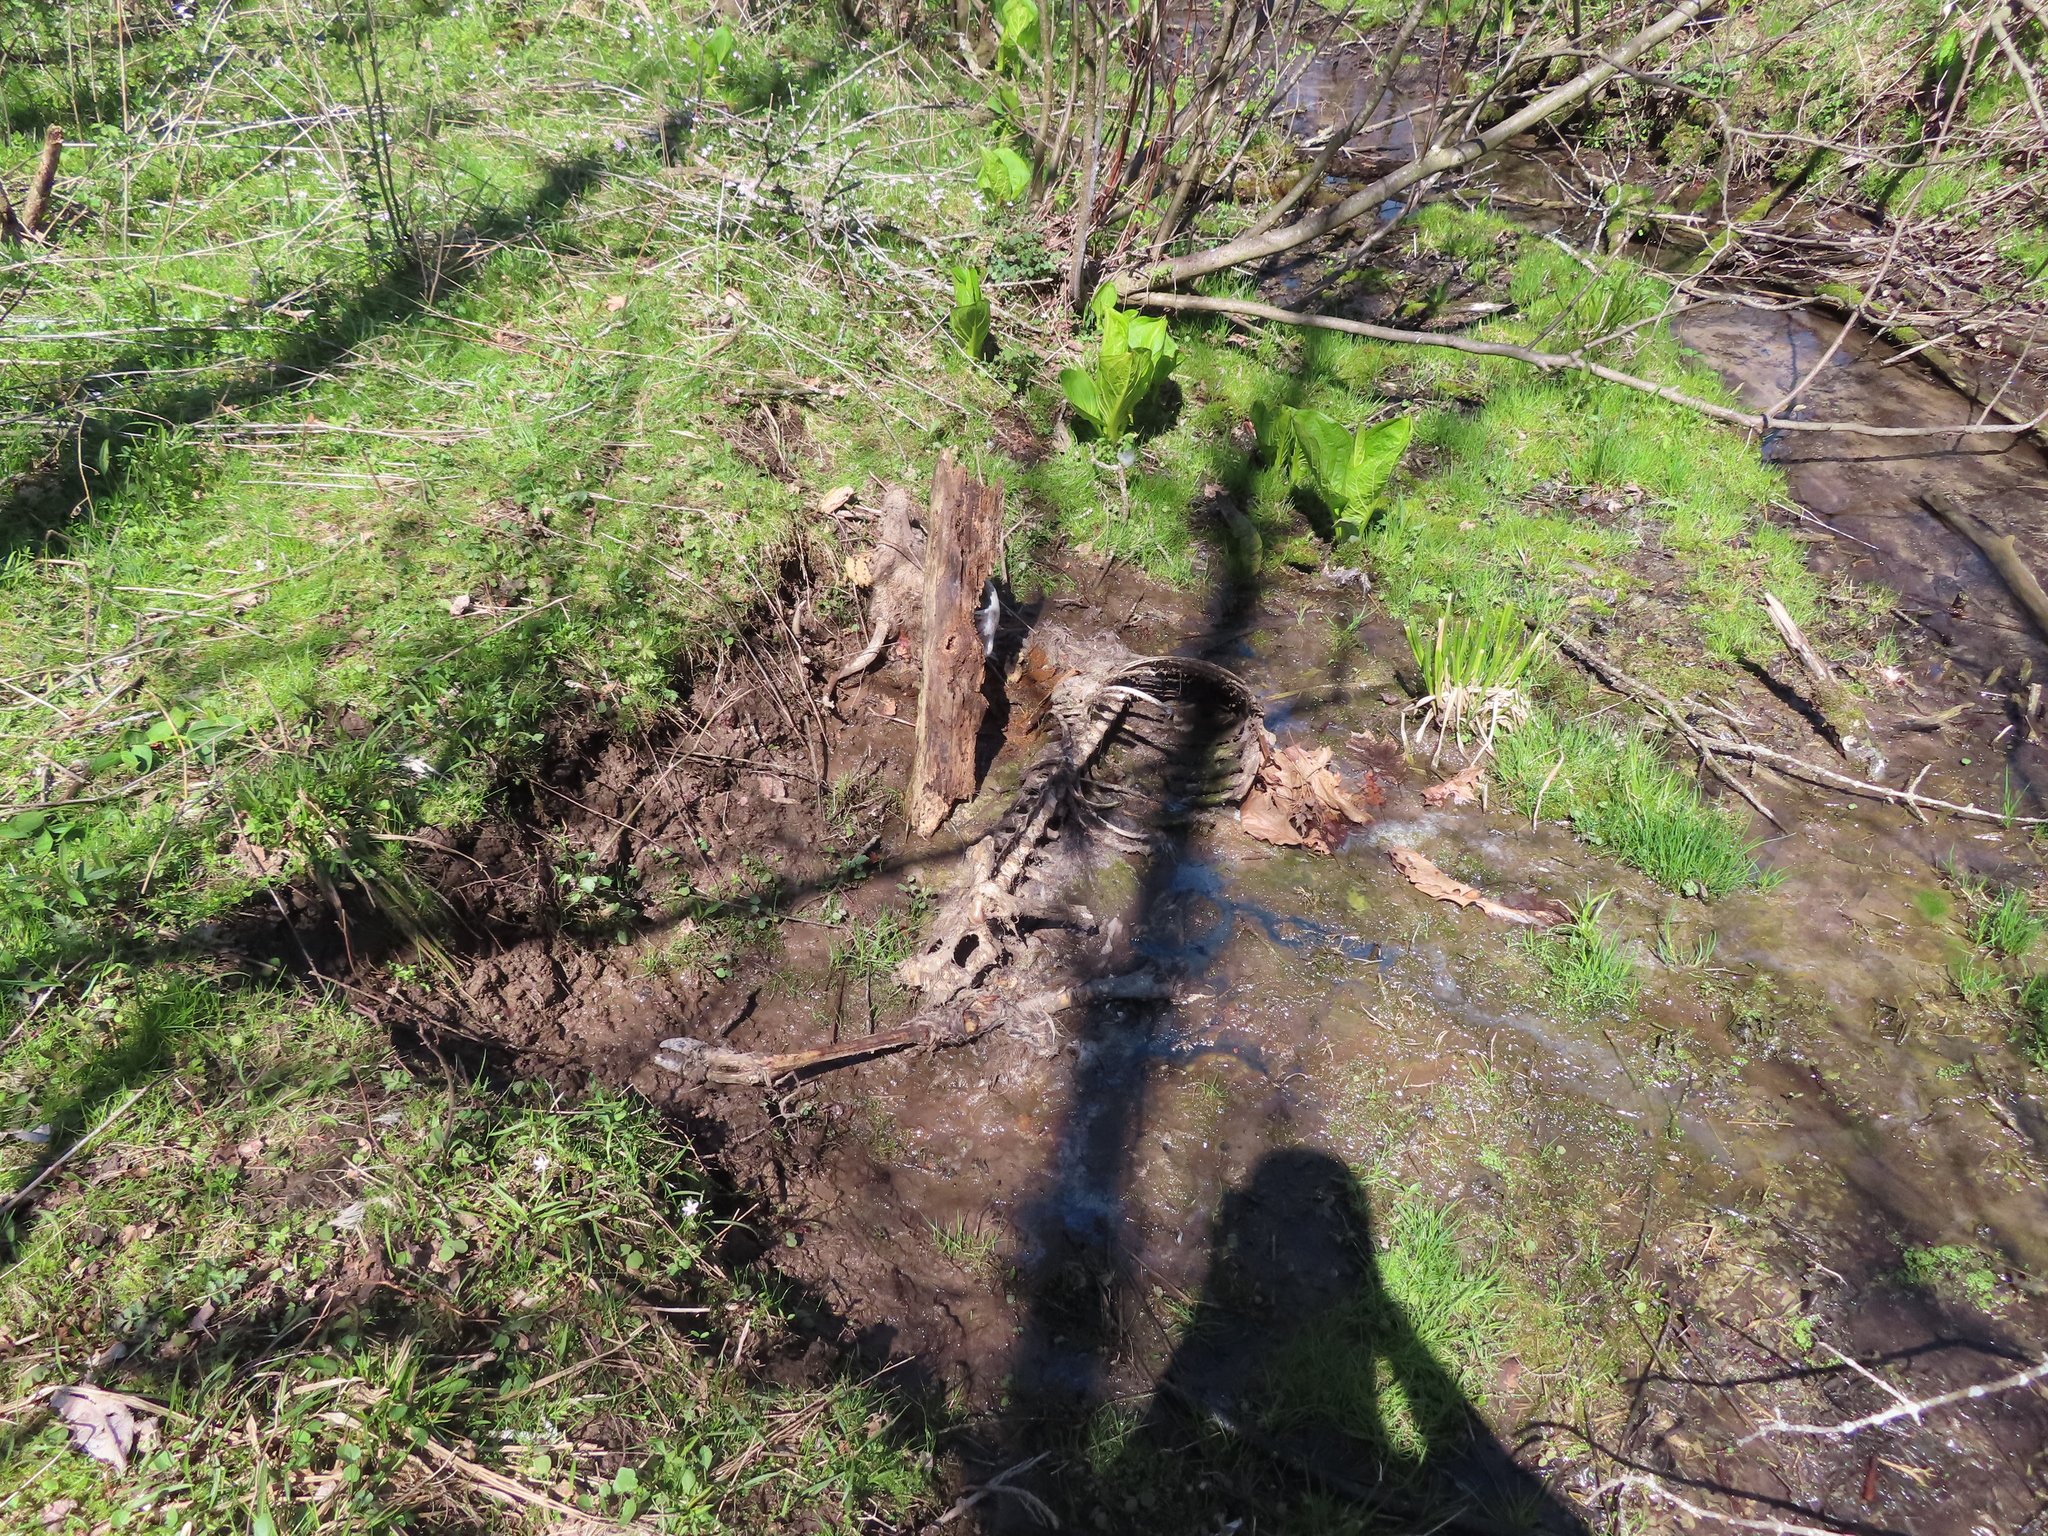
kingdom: Animalia
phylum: Chordata
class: Mammalia
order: Artiodactyla
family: Cervidae
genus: Odocoileus
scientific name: Odocoileus virginianus
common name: White-tailed deer
